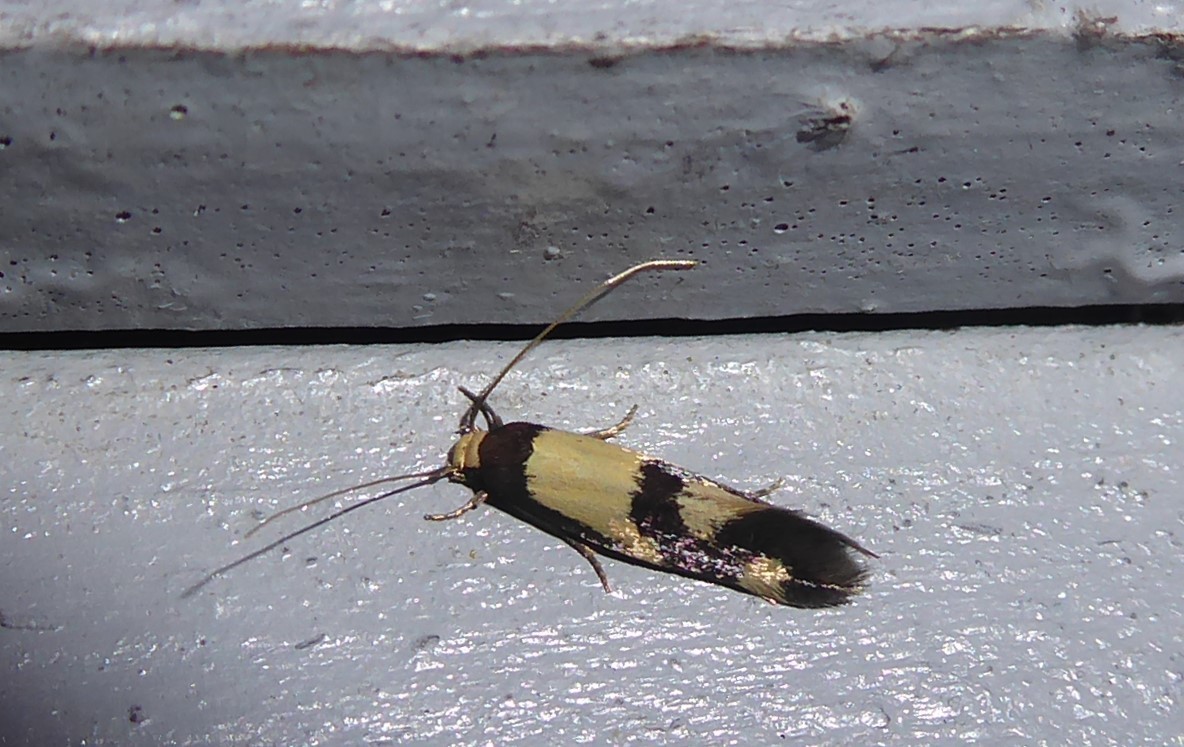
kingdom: Animalia
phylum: Arthropoda
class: Insecta
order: Lepidoptera
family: Tineidae
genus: Opogona
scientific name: Opogona comptella
